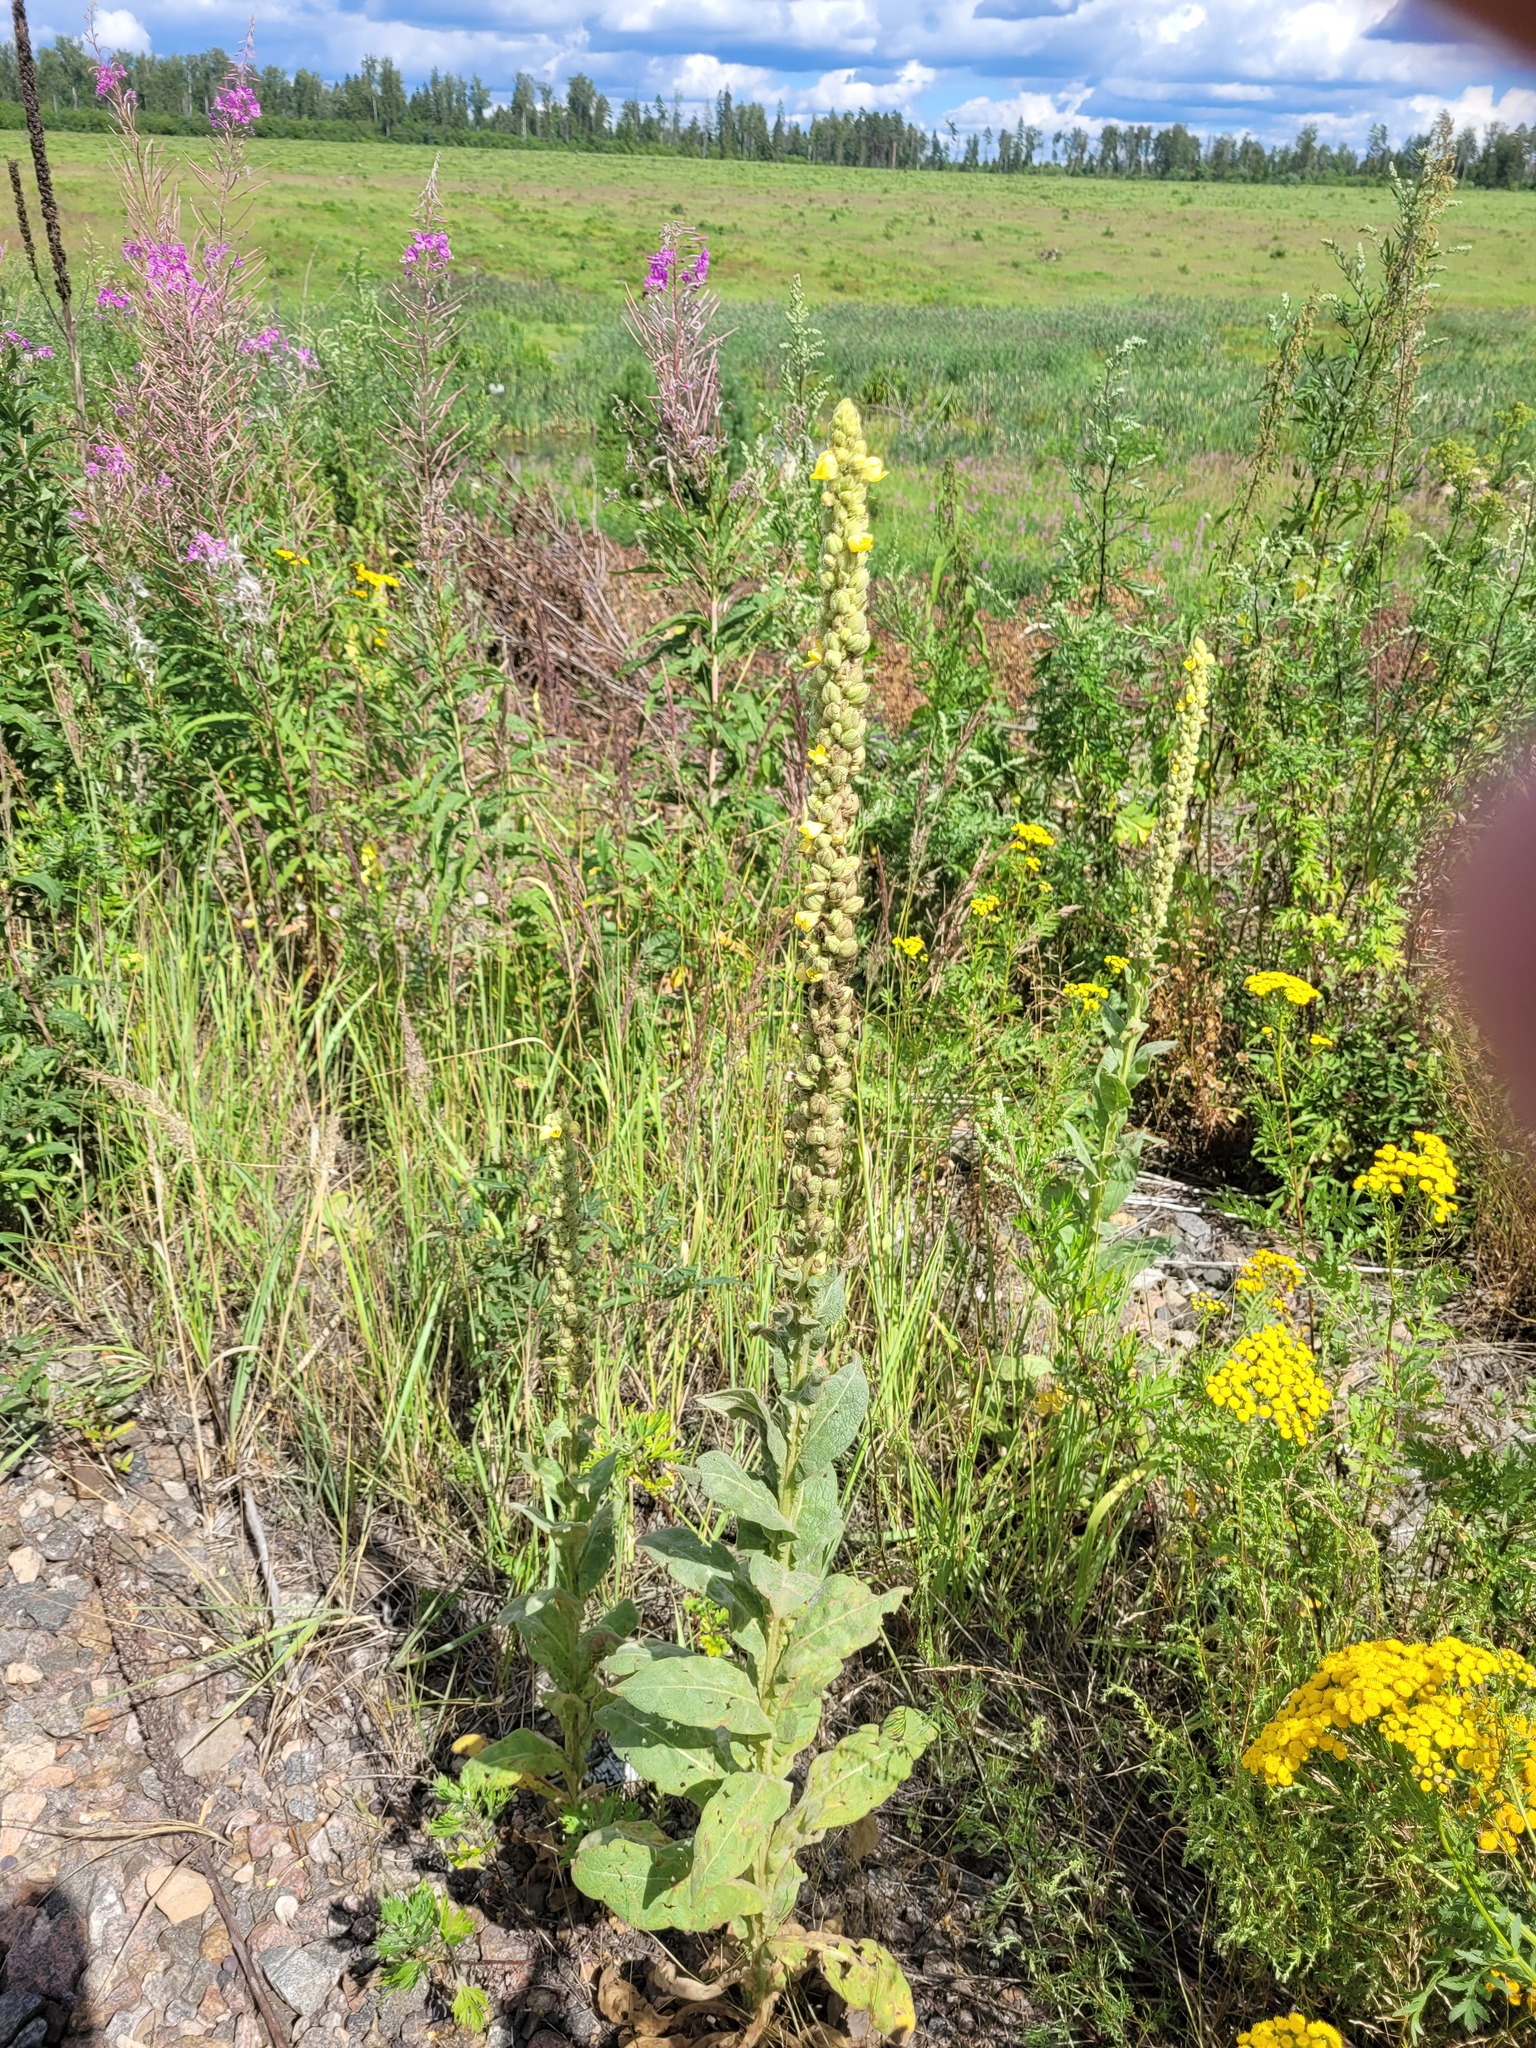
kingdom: Plantae
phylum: Tracheophyta
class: Magnoliopsida
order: Lamiales
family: Scrophulariaceae
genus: Verbascum
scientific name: Verbascum thapsus
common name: Common mullein
